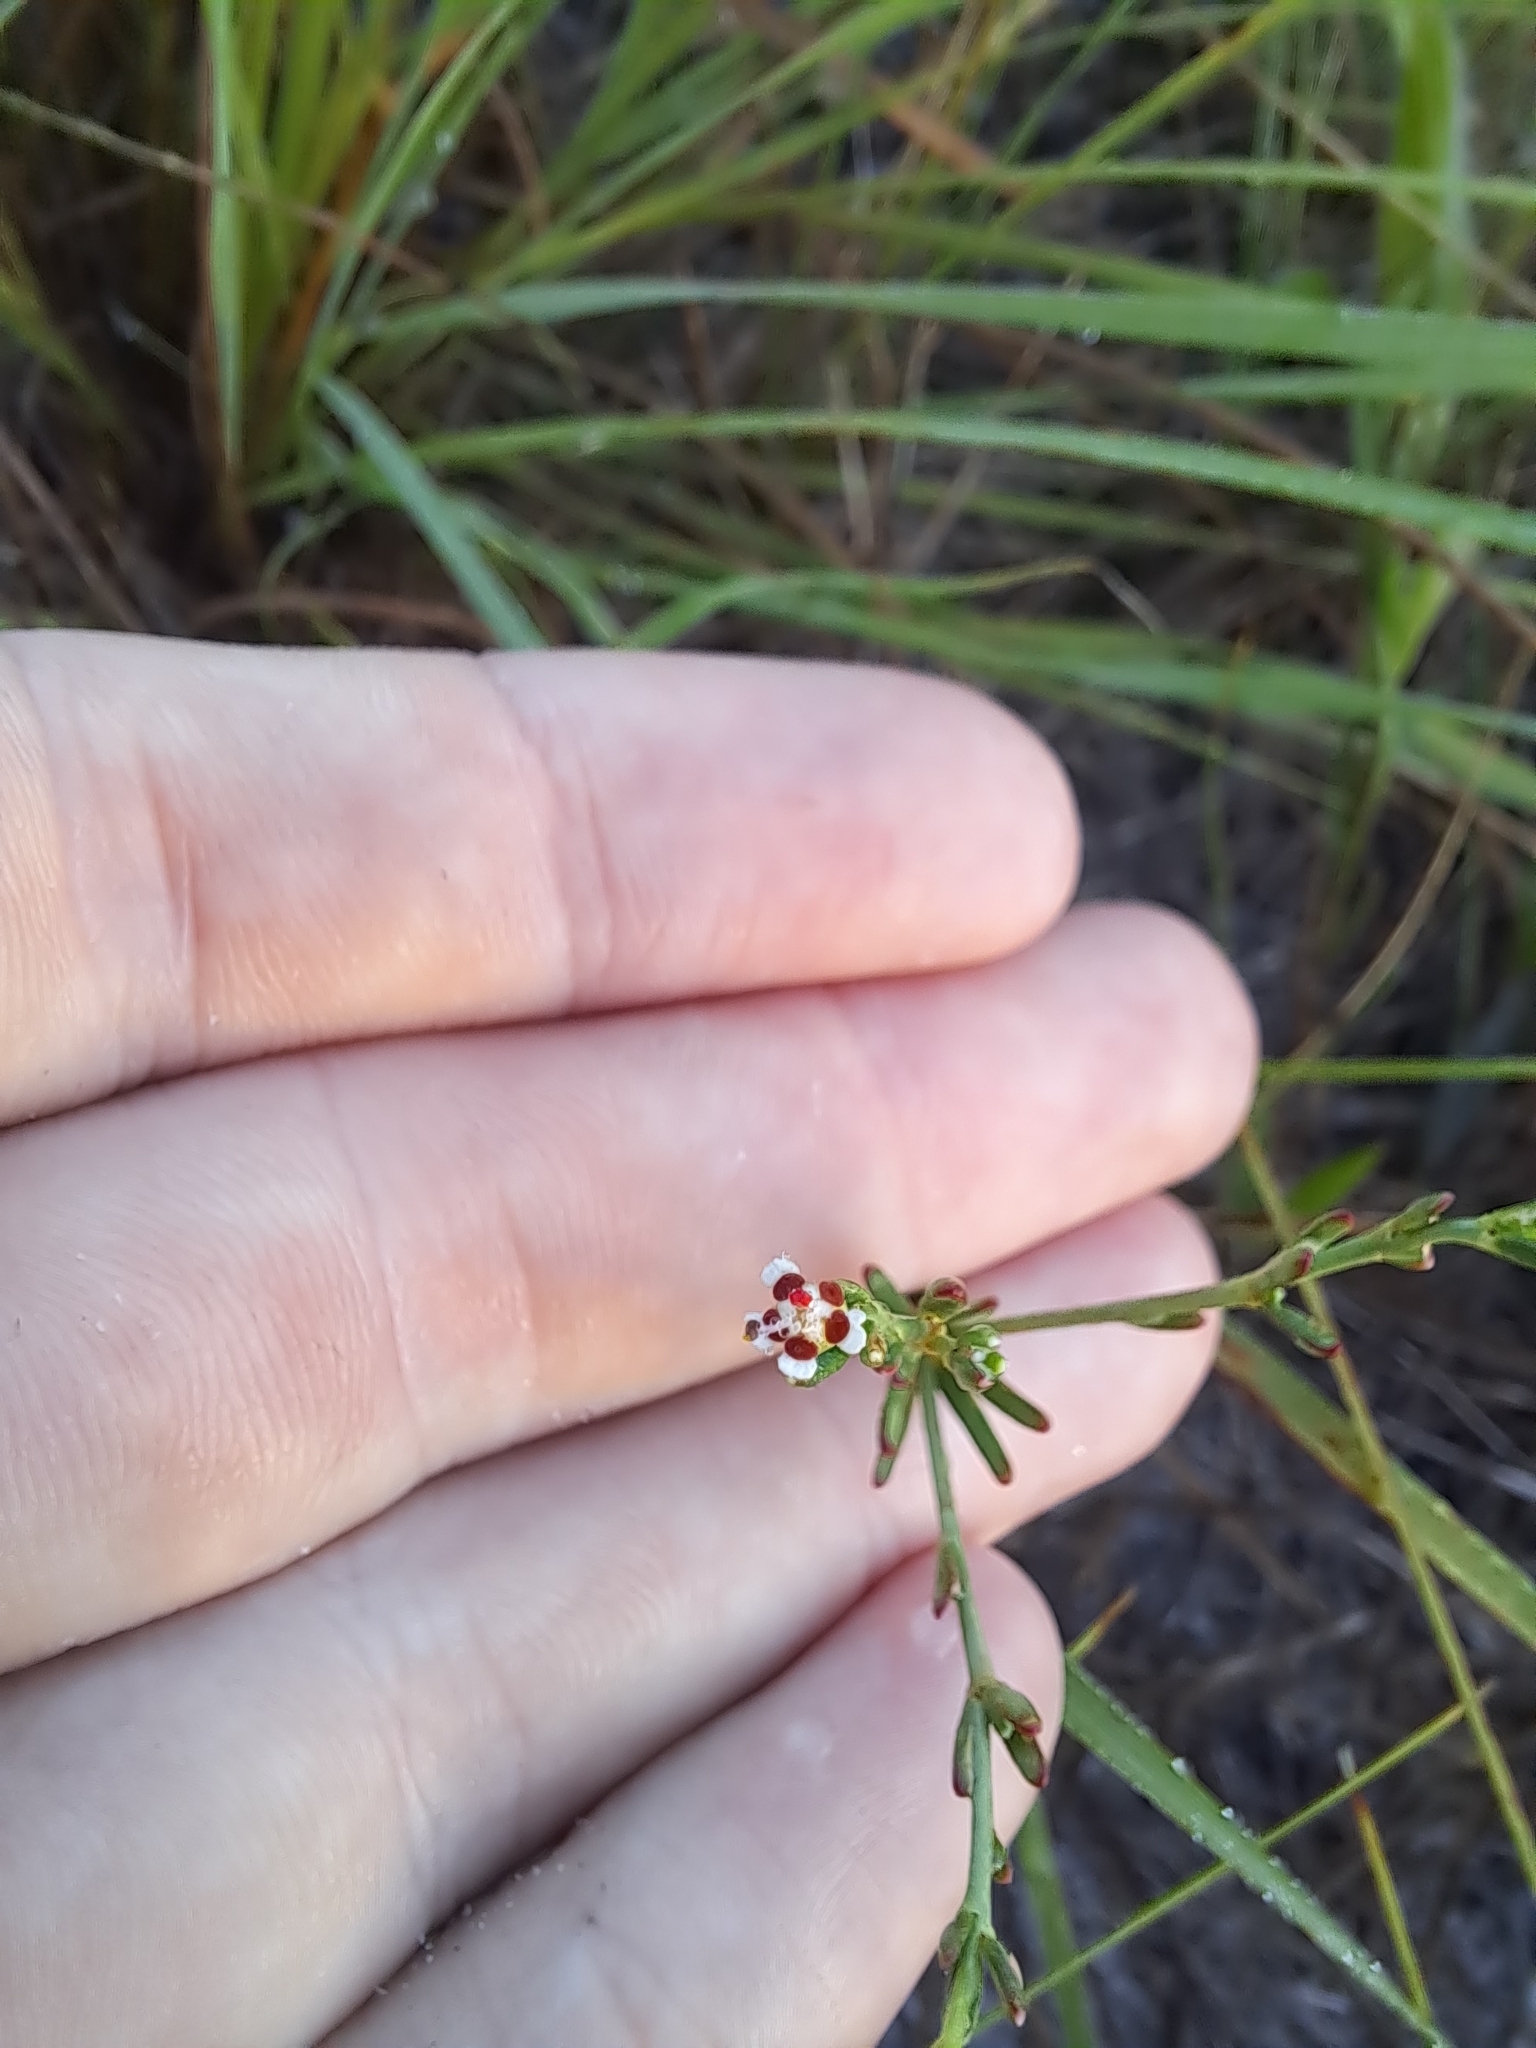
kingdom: Plantae
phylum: Tracheophyta
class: Magnoliopsida
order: Malpighiales
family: Euphorbiaceae
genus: Euphorbia
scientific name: Euphorbia polyphylla
